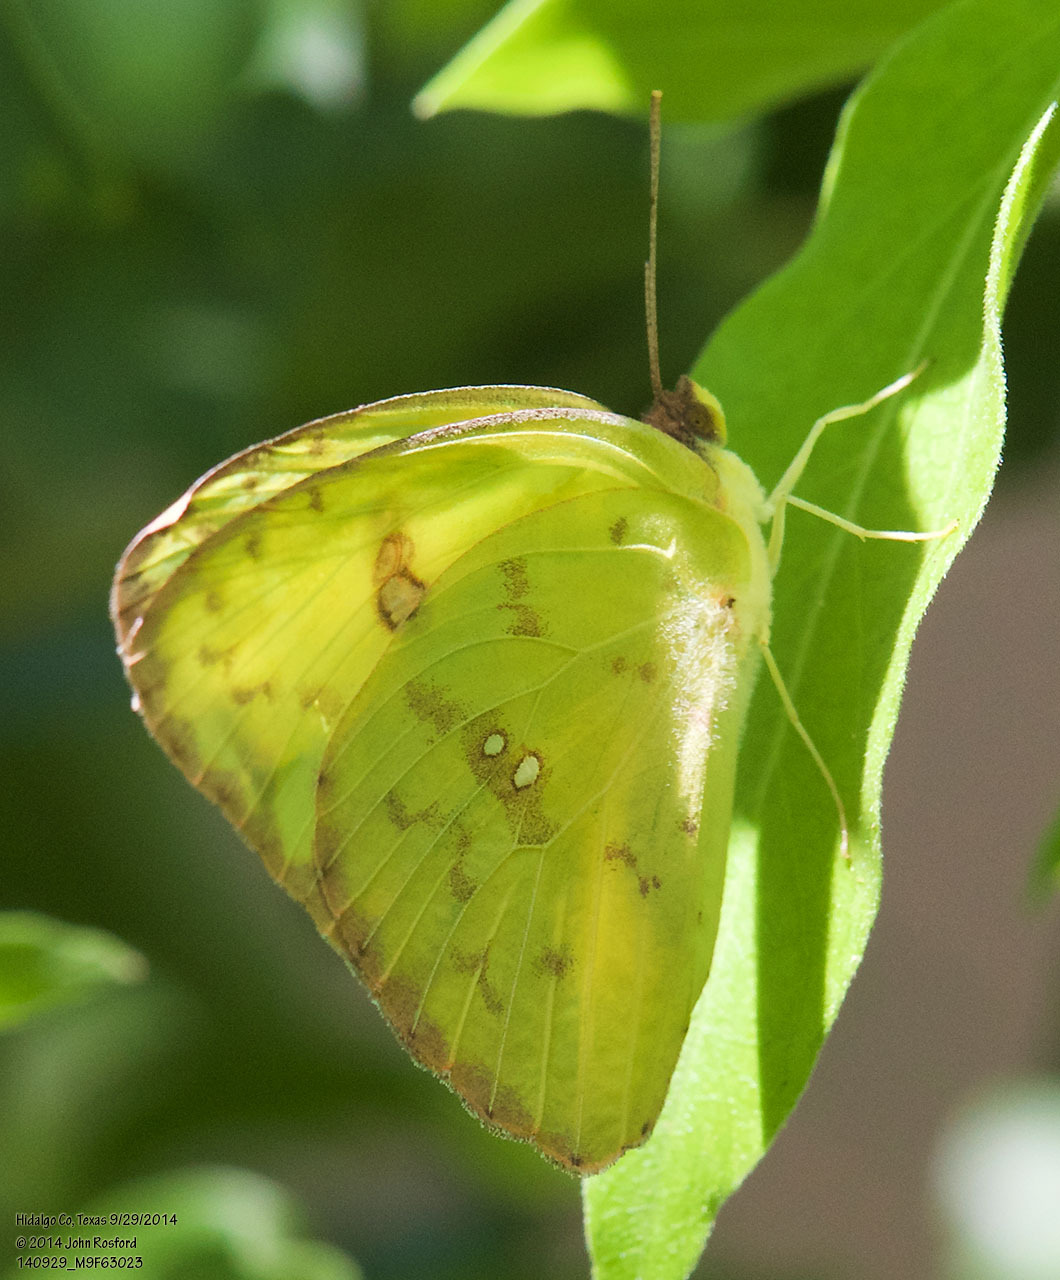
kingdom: Animalia
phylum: Arthropoda
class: Insecta
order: Lepidoptera
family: Pieridae
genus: Phoebis
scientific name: Phoebis sennae
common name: Cloudless sulphur
